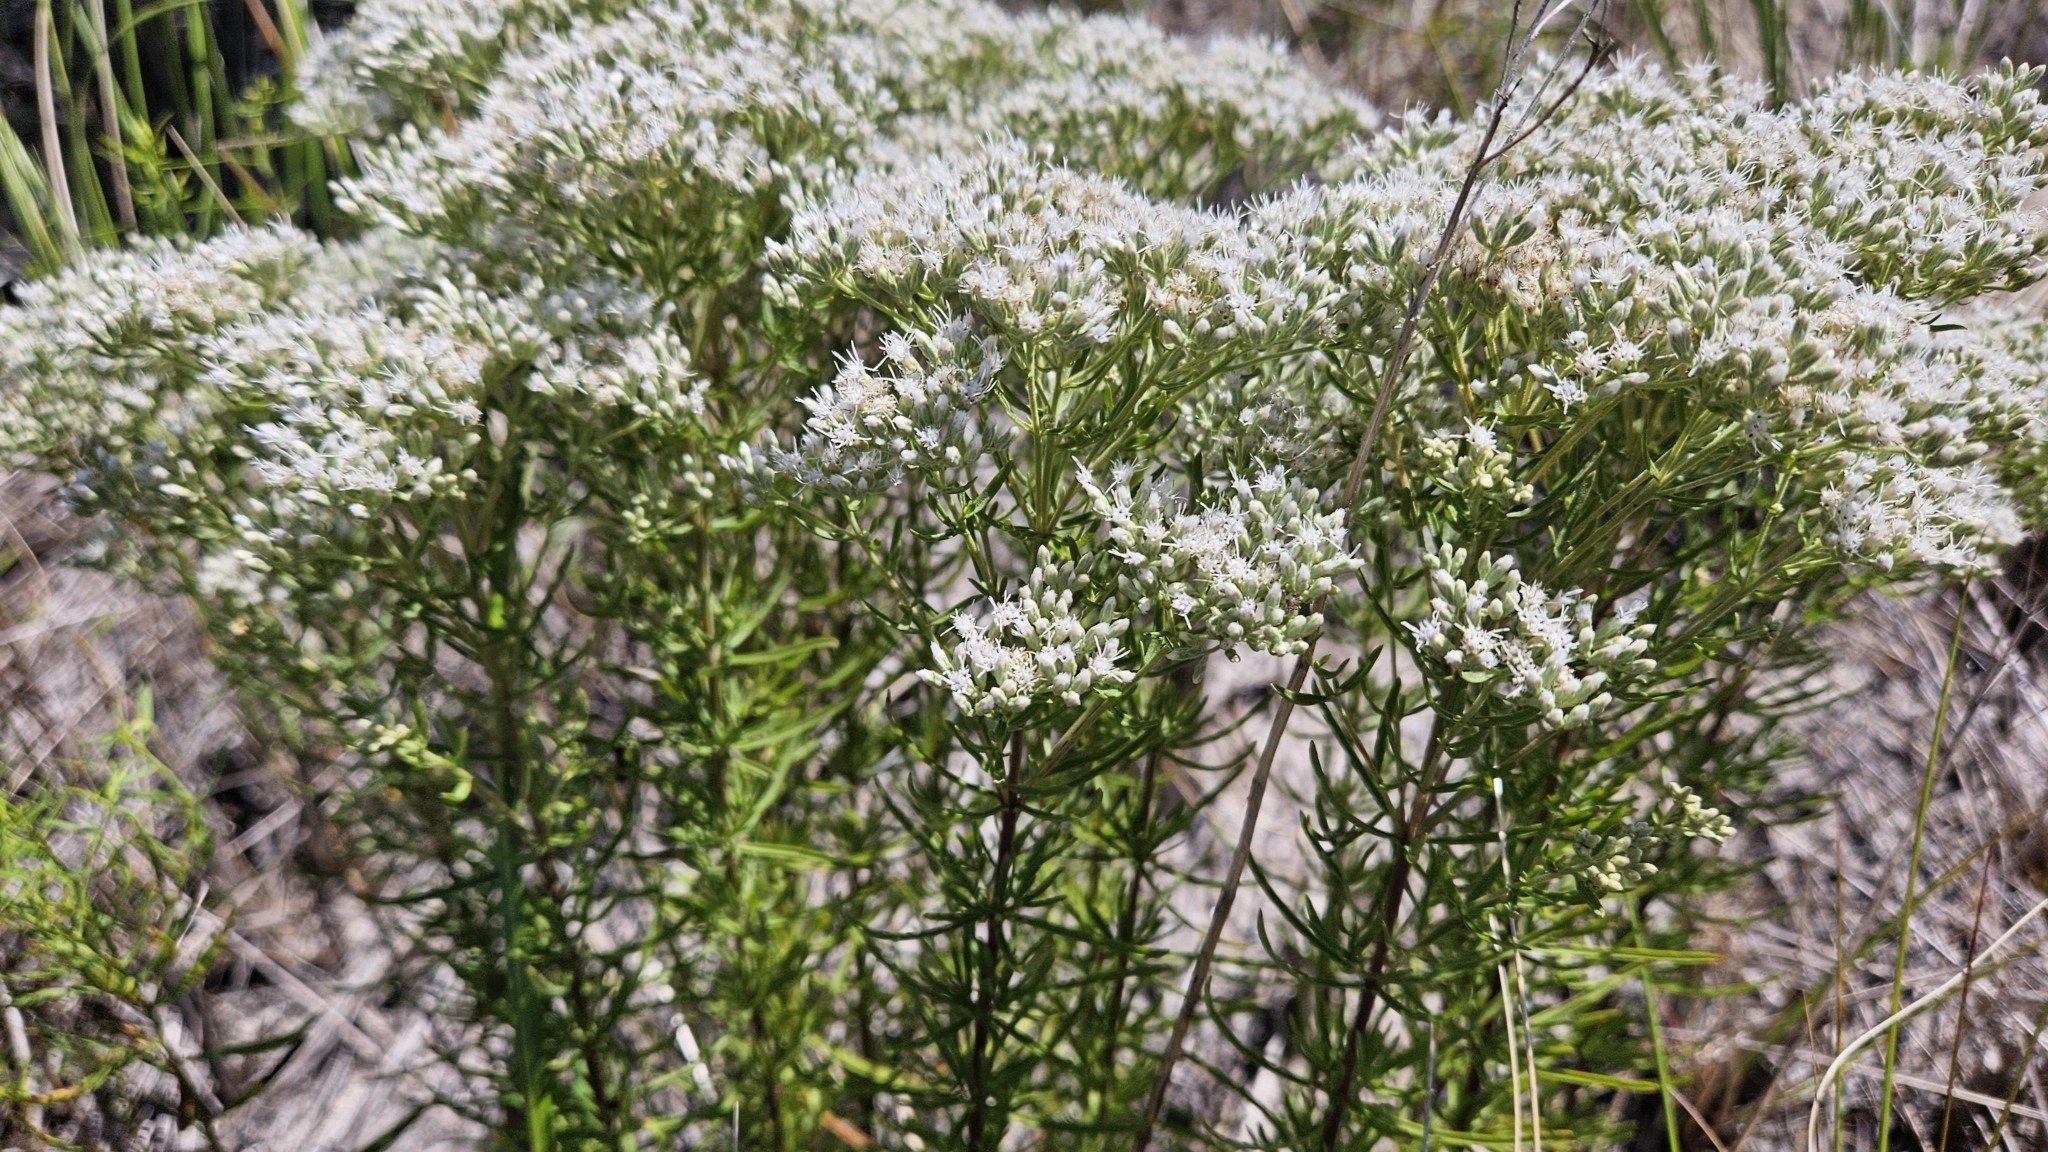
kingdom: Plantae
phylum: Tracheophyta
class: Magnoliopsida
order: Asterales
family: Asteraceae
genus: Eupatorium
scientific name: Eupatorium hyssopifolium
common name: Hyssop-leaf thoroughwort
